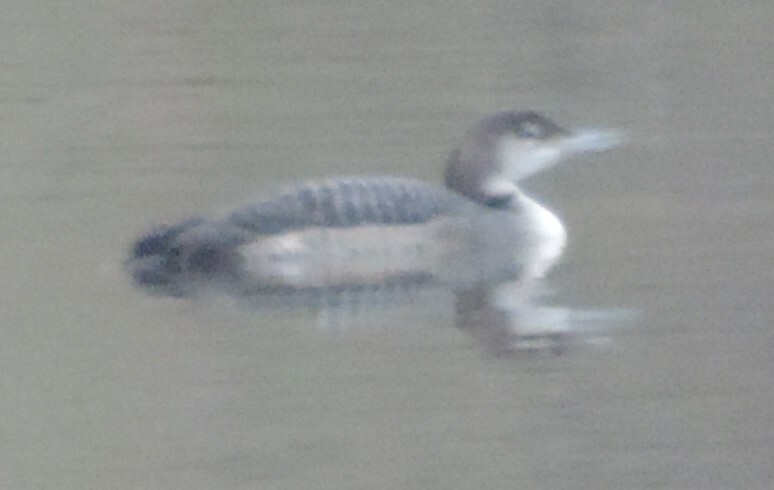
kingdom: Animalia
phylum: Chordata
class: Aves
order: Gaviiformes
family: Gaviidae
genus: Gavia
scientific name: Gavia immer
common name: Common loon
